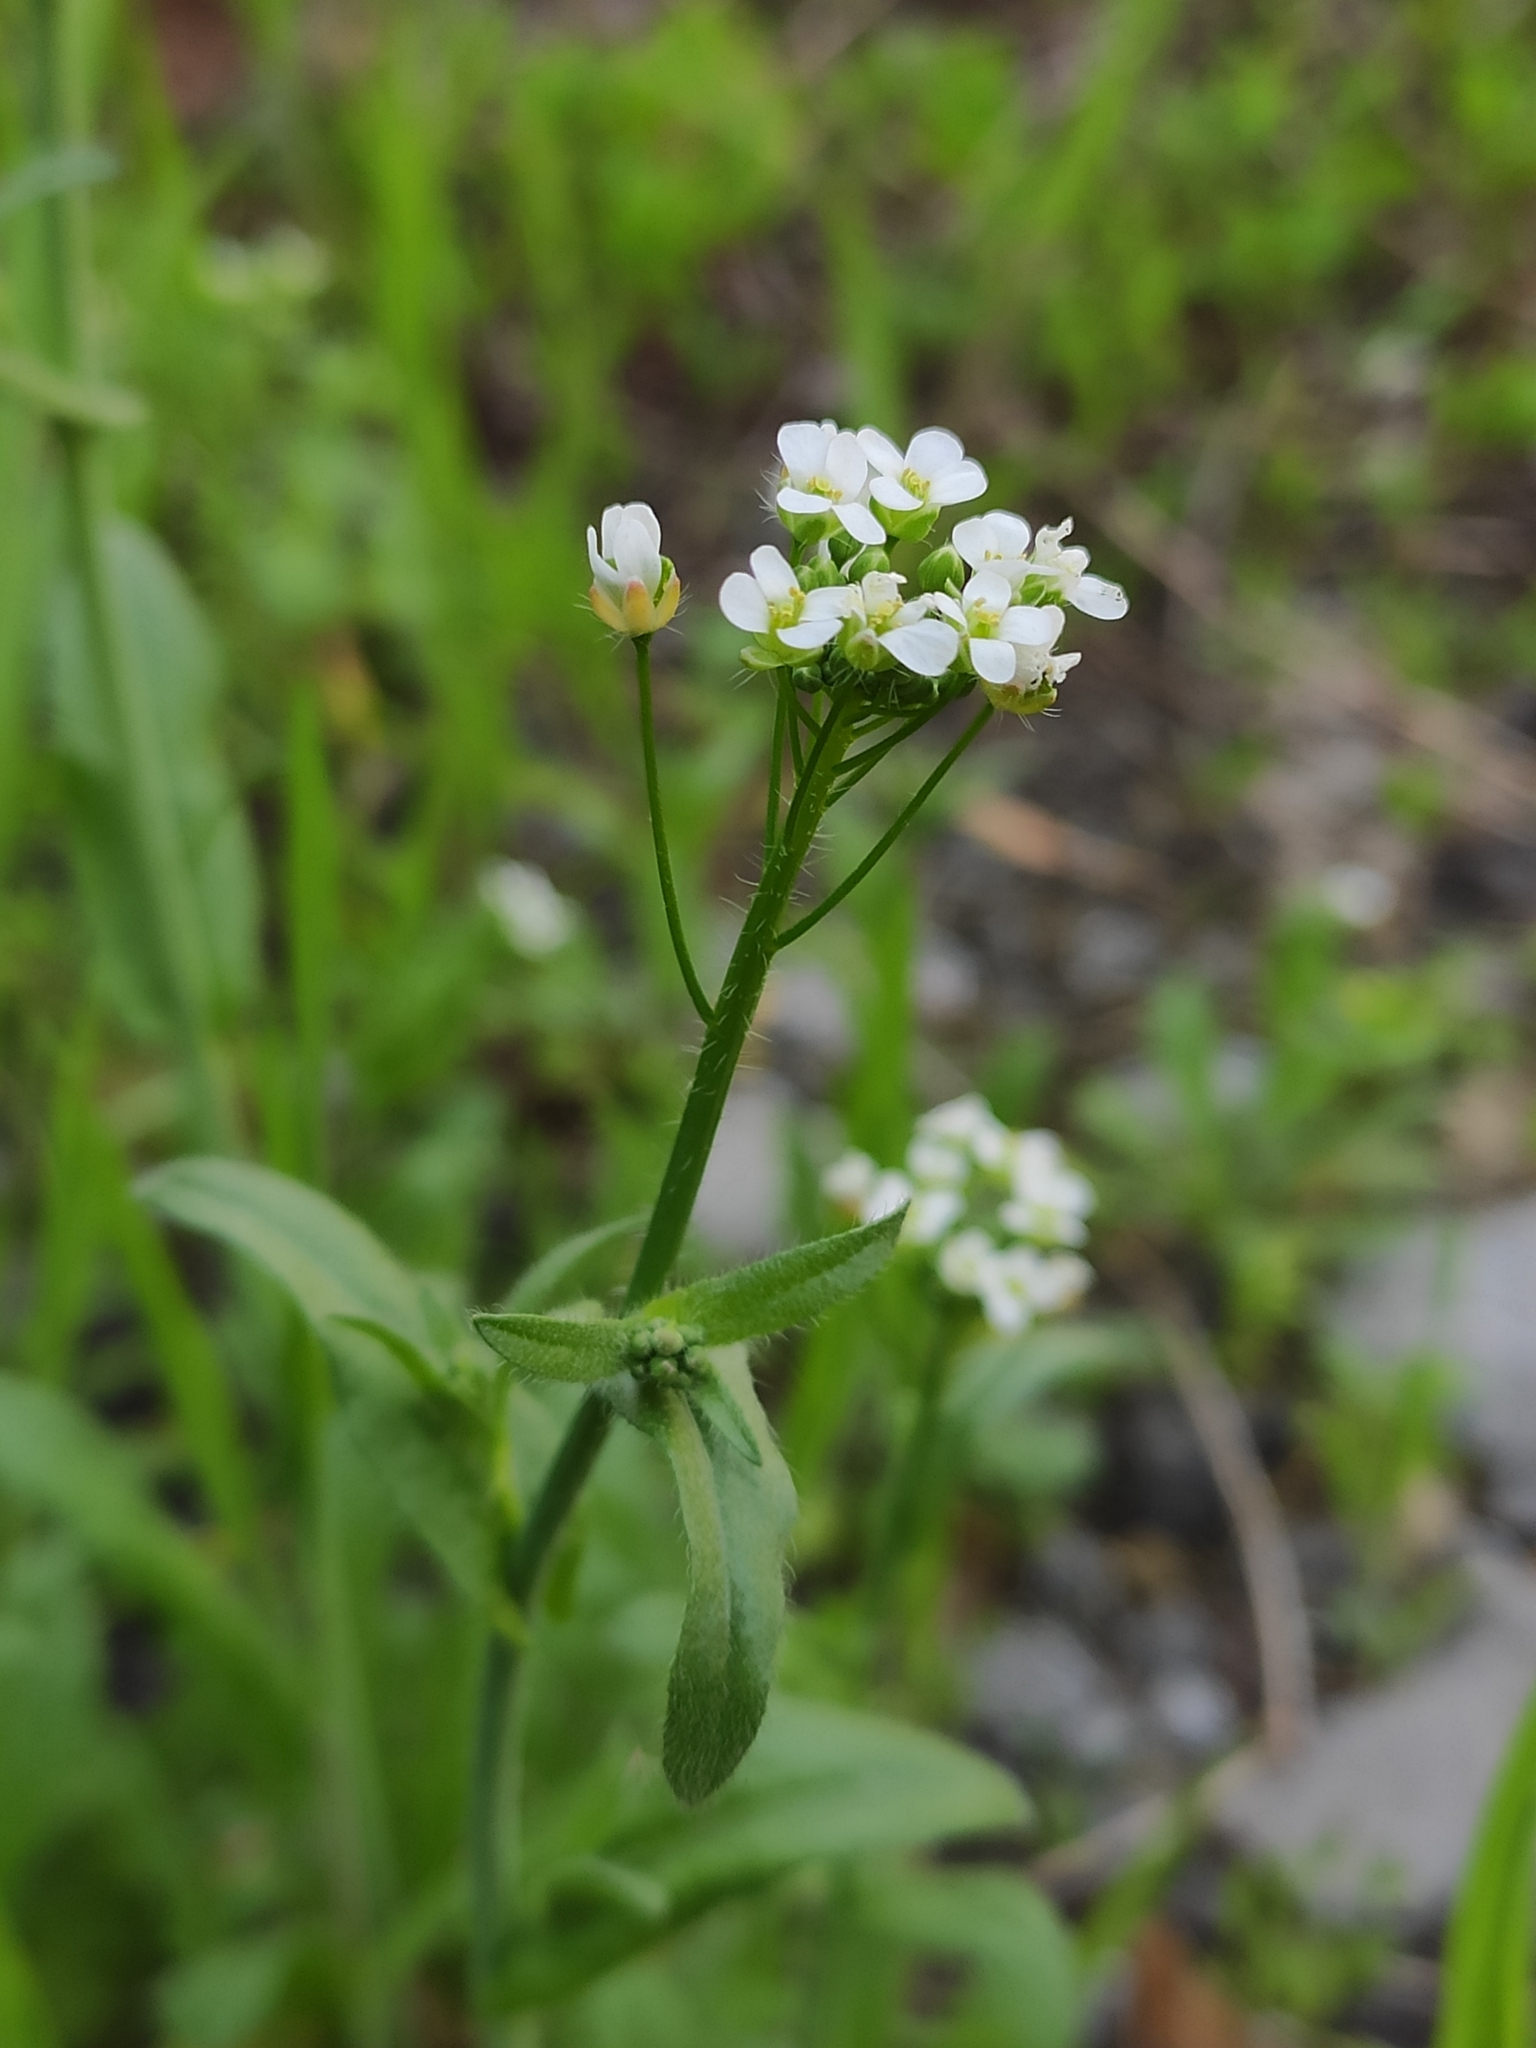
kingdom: Plantae
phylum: Tracheophyta
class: Magnoliopsida
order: Brassicales
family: Brassicaceae
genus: Capsella
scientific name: Capsella bursa-pastoris
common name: Shepherd's purse
